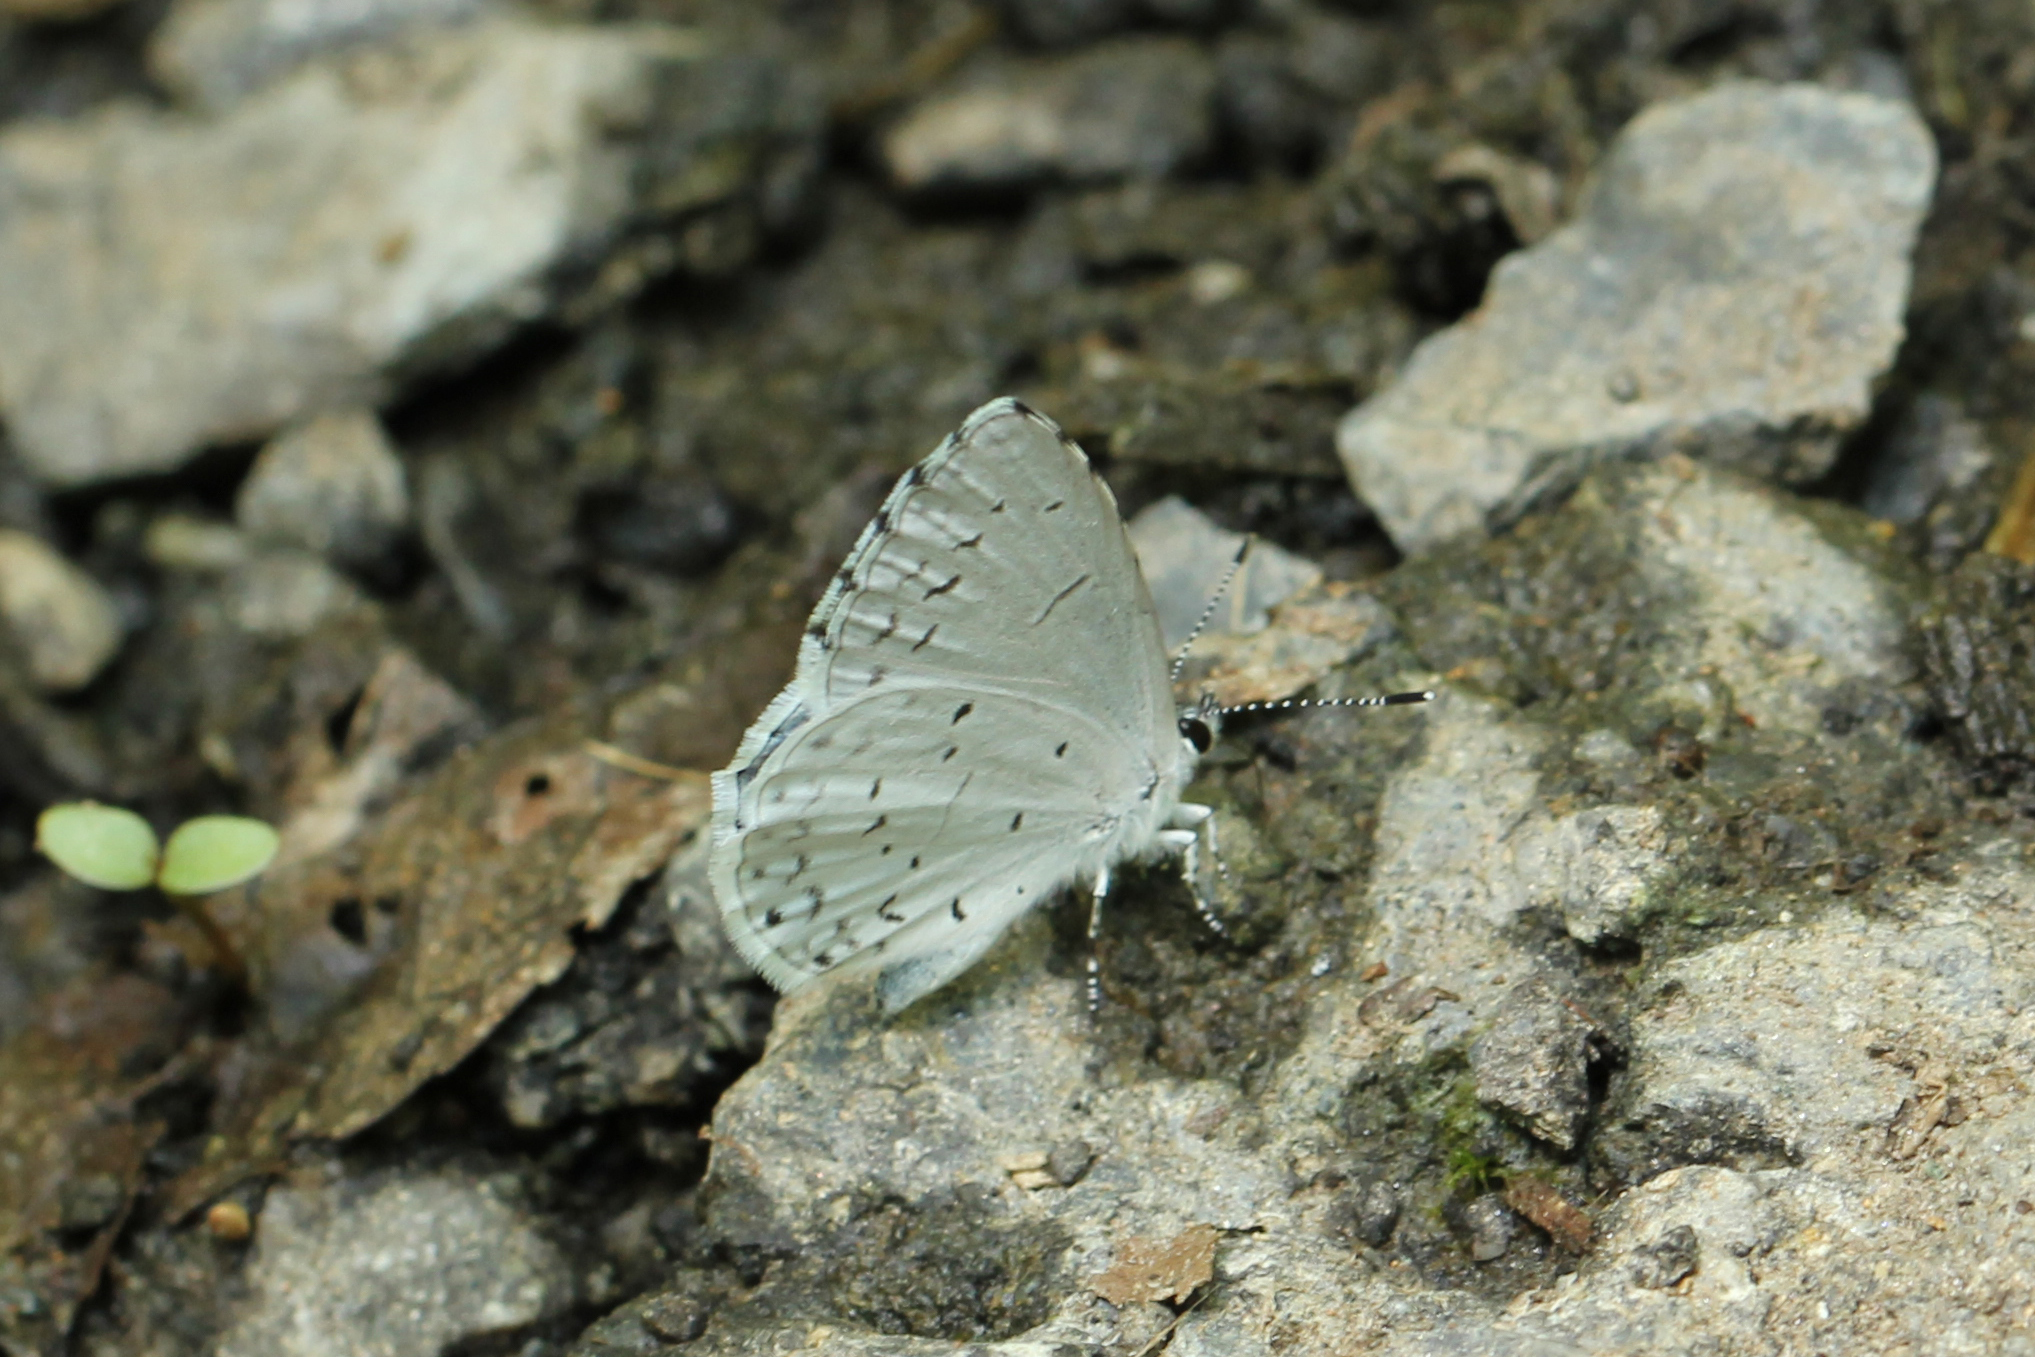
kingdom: Animalia
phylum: Arthropoda
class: Insecta
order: Lepidoptera
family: Lycaenidae
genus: Cyaniris
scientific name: Cyaniris neglecta
